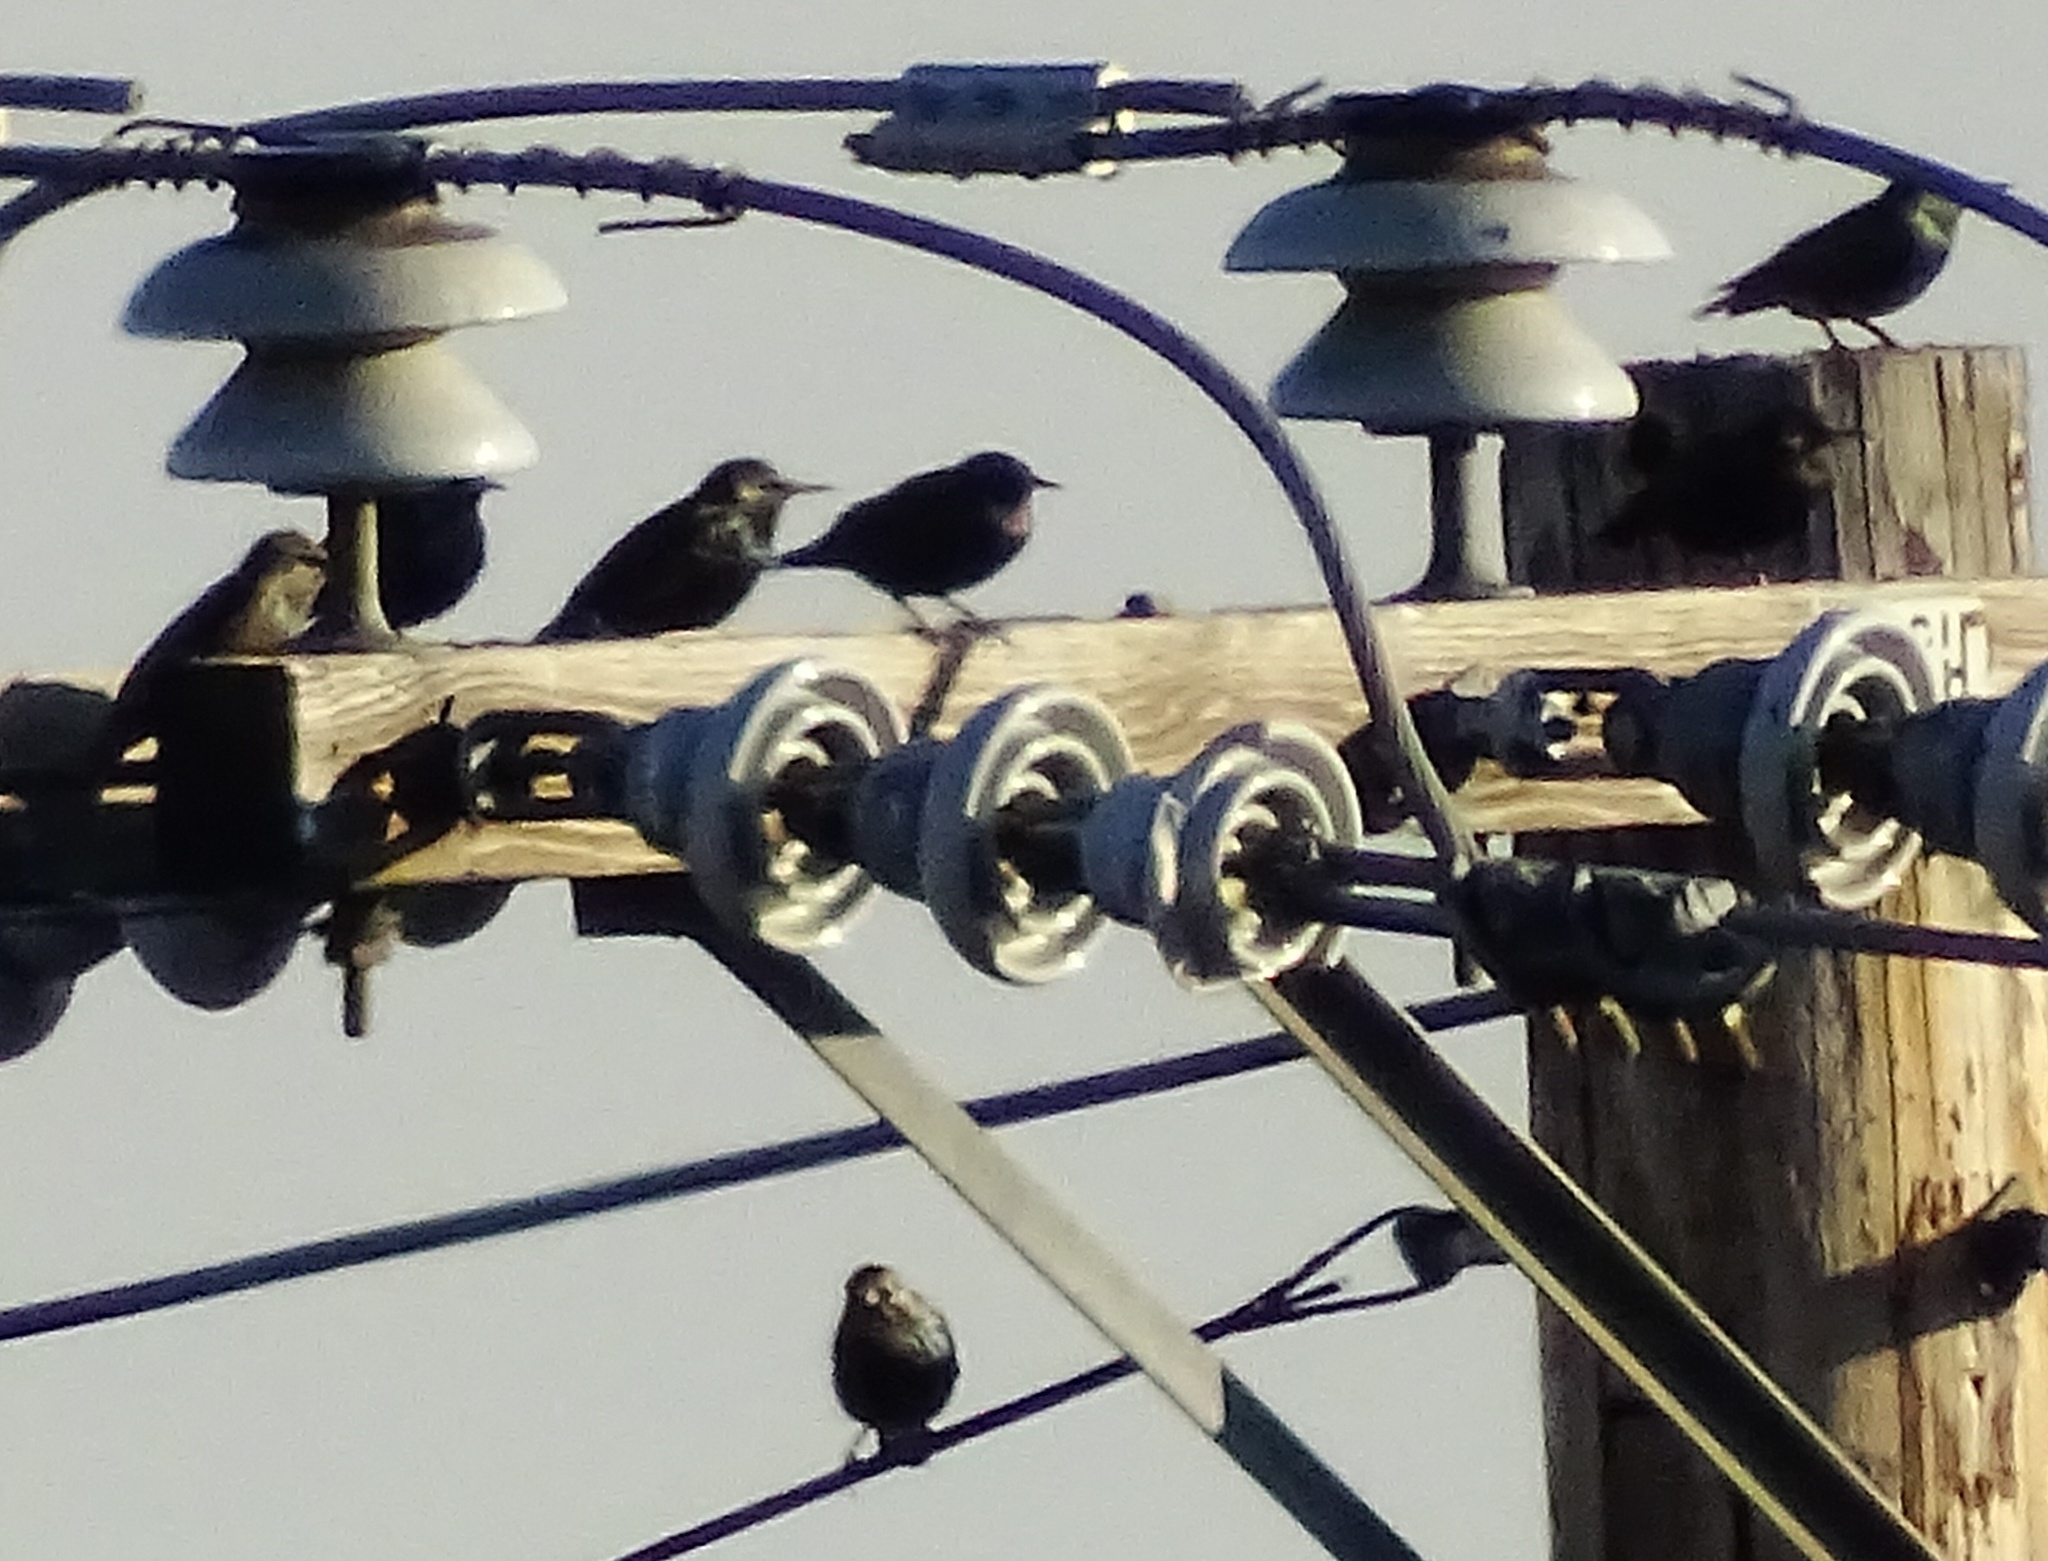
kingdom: Animalia
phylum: Chordata
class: Aves
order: Passeriformes
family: Sturnidae
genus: Sturnus
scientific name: Sturnus vulgaris
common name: Common starling
